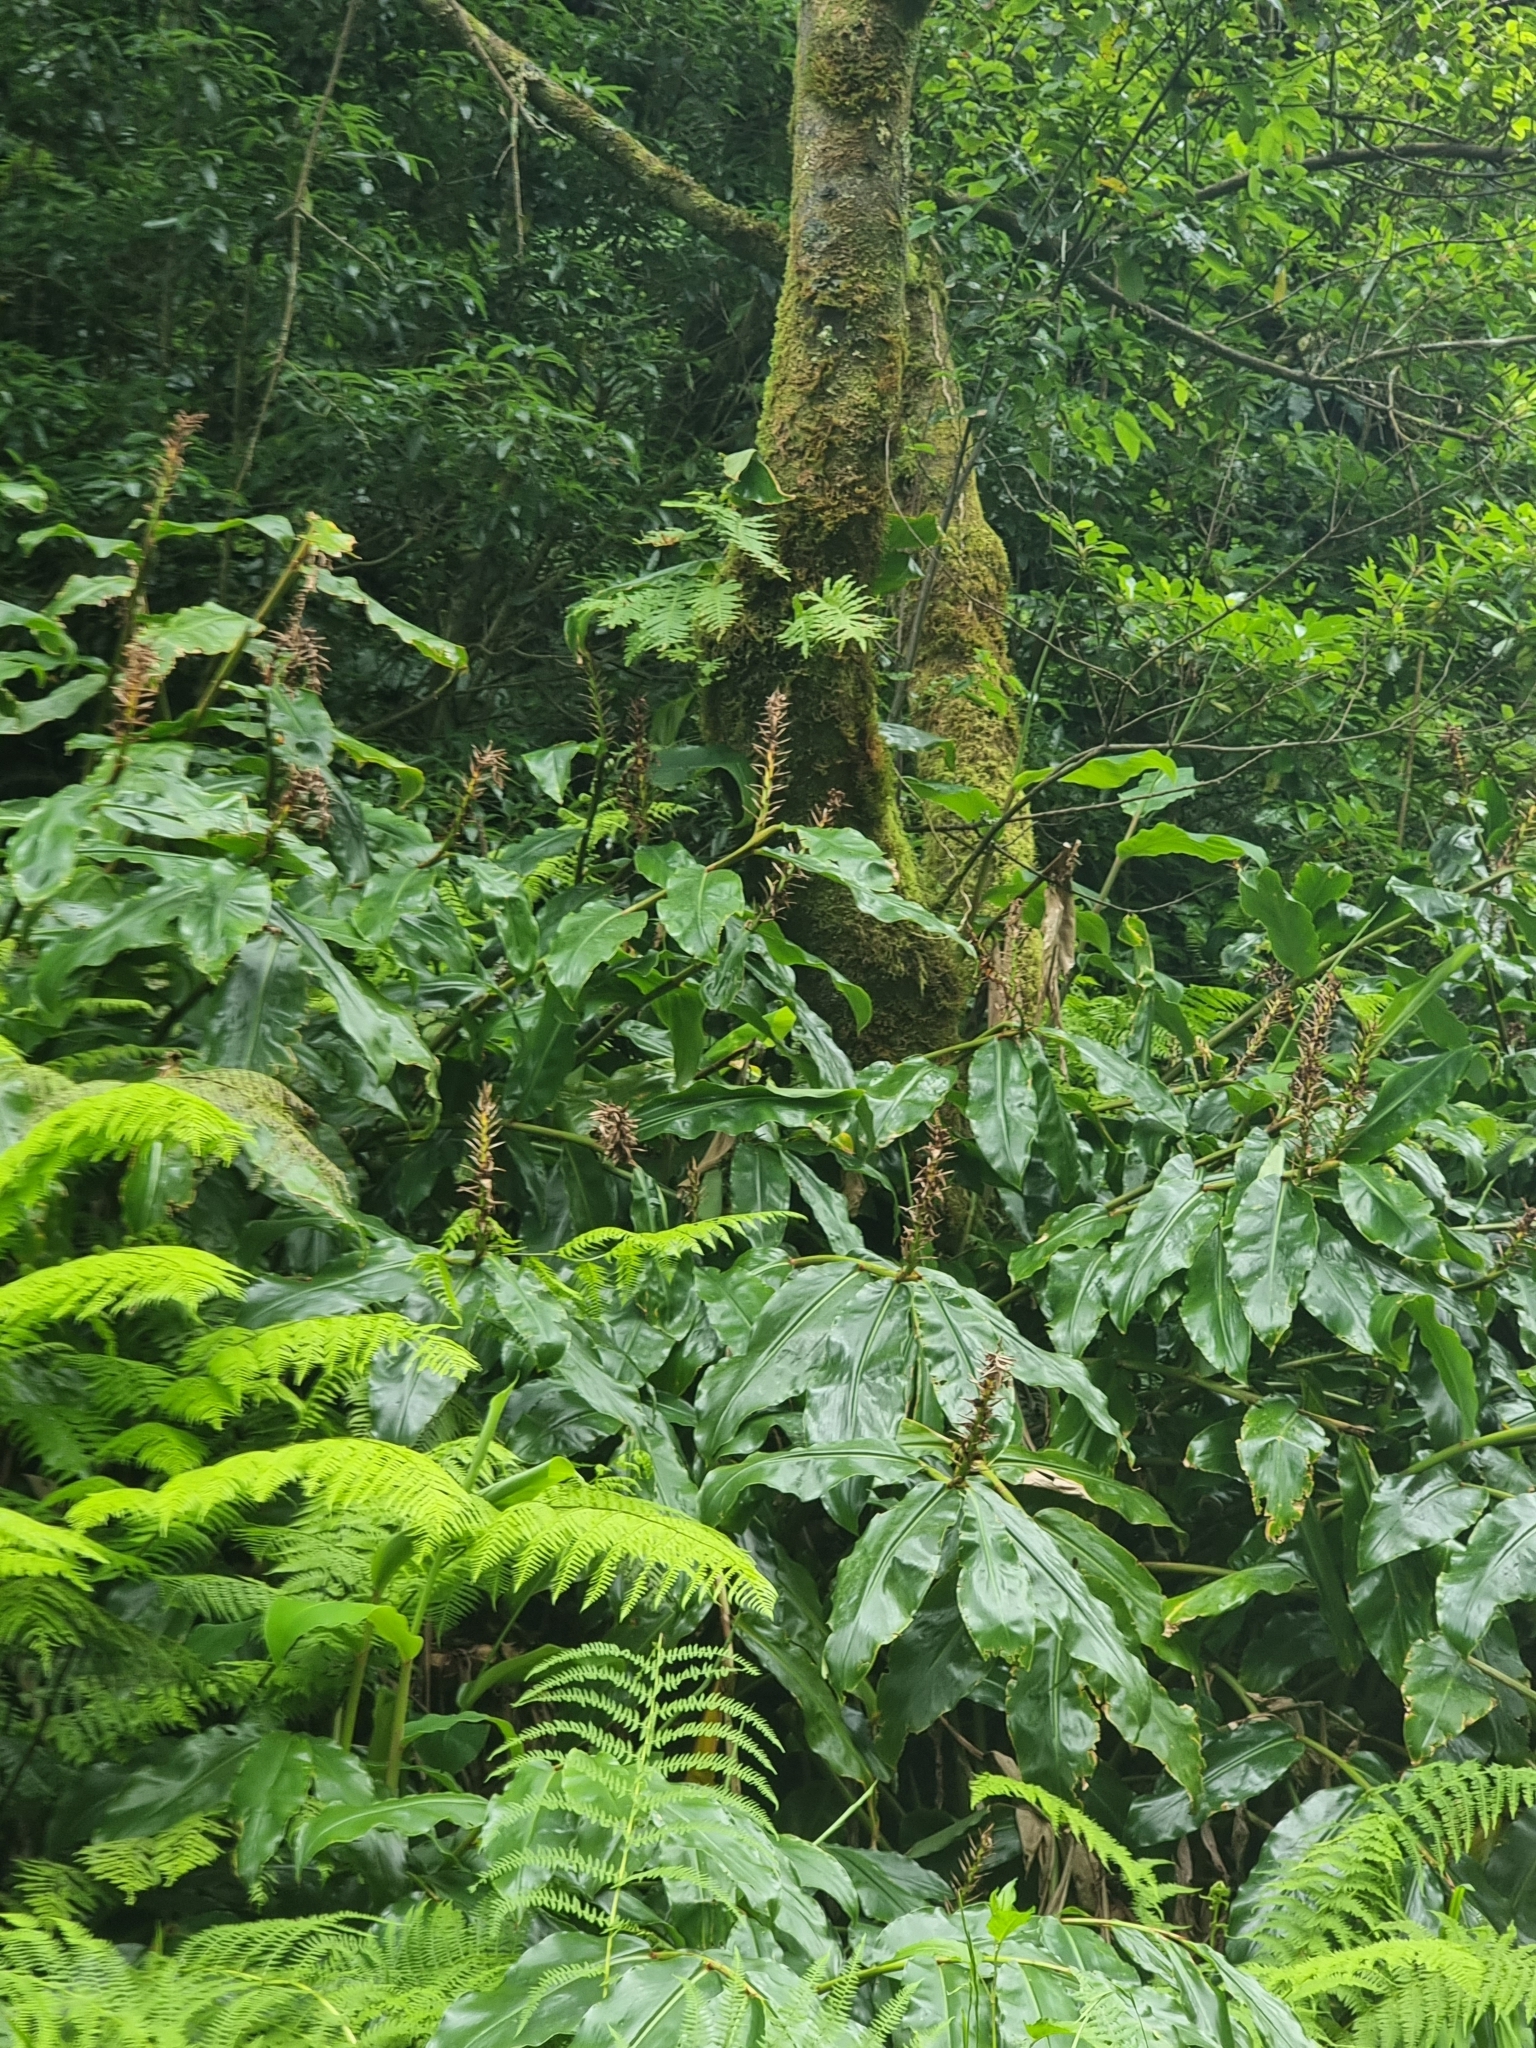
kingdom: Plantae
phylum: Tracheophyta
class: Liliopsida
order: Zingiberales
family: Zingiberaceae
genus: Hedychium
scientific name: Hedychium gardnerianum
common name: Himalayan ginger
